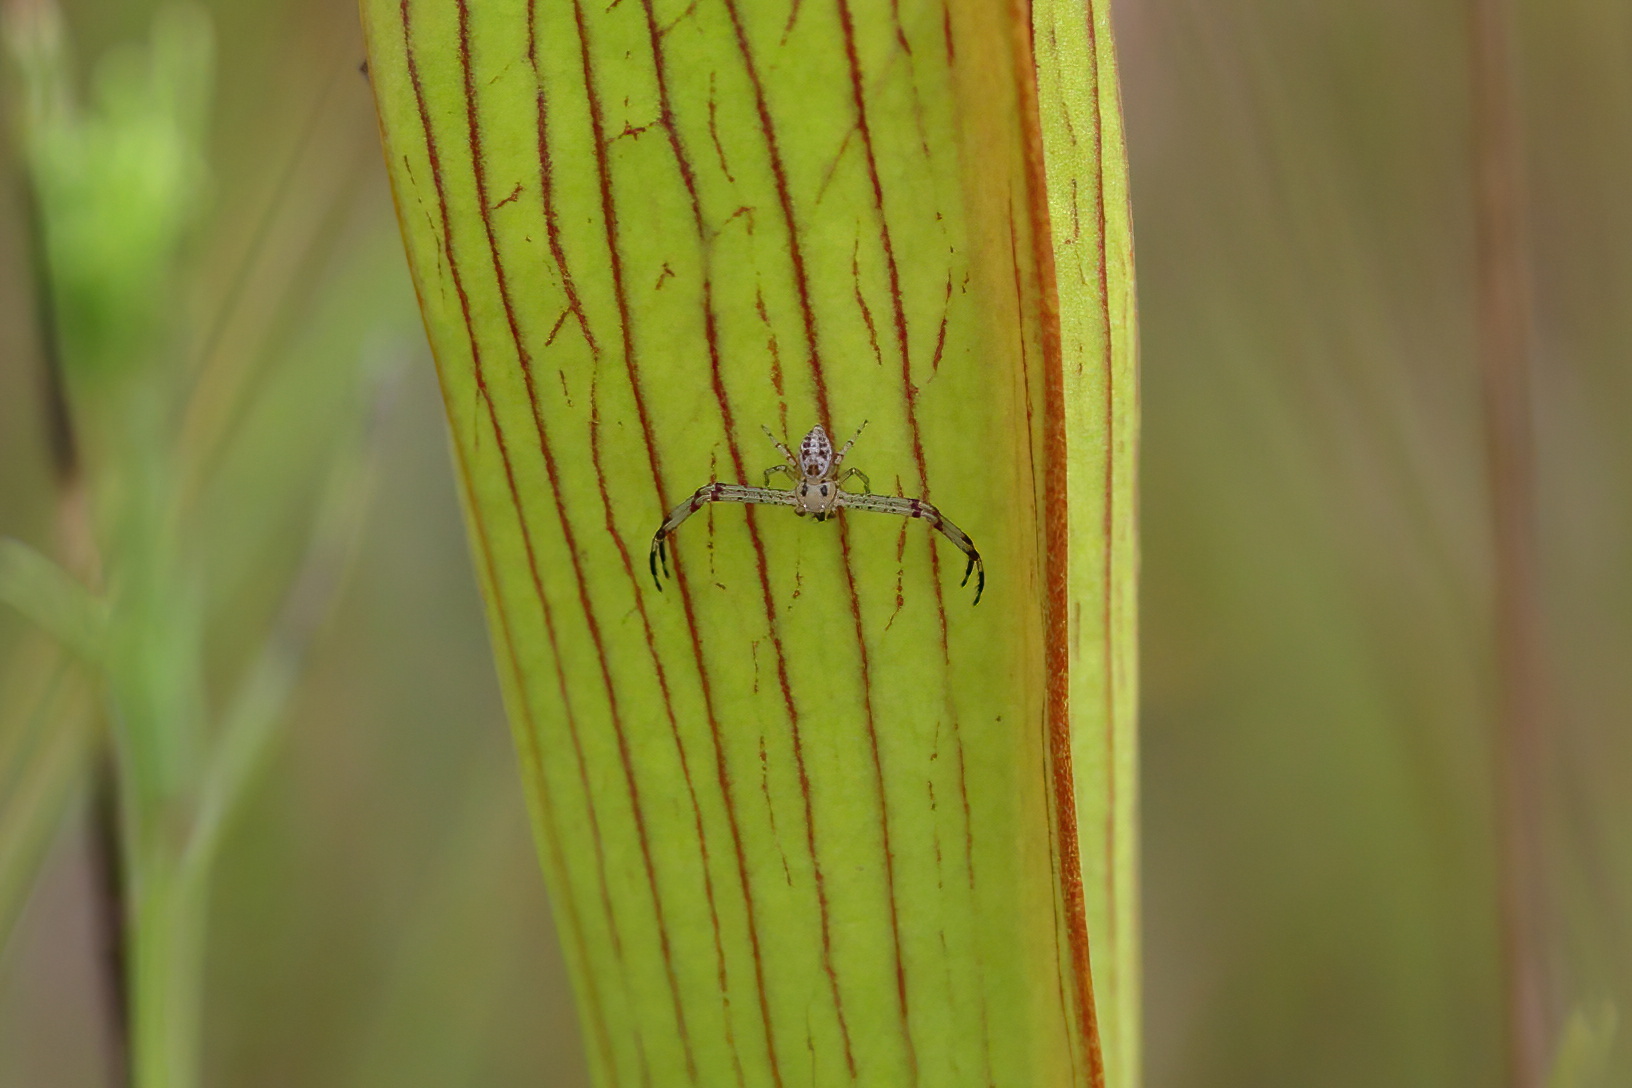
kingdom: Animalia
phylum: Arthropoda
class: Arachnida
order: Araneae
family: Thomisidae
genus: Mecaphesa
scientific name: Mecaphesa celer
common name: Crab spiders
